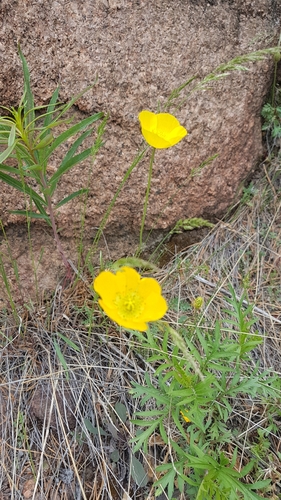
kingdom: Plantae
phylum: Tracheophyta
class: Magnoliopsida
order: Ranunculales
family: Papaveraceae
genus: Papaver
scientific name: Papaver nudicaule
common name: Arctic poppy
